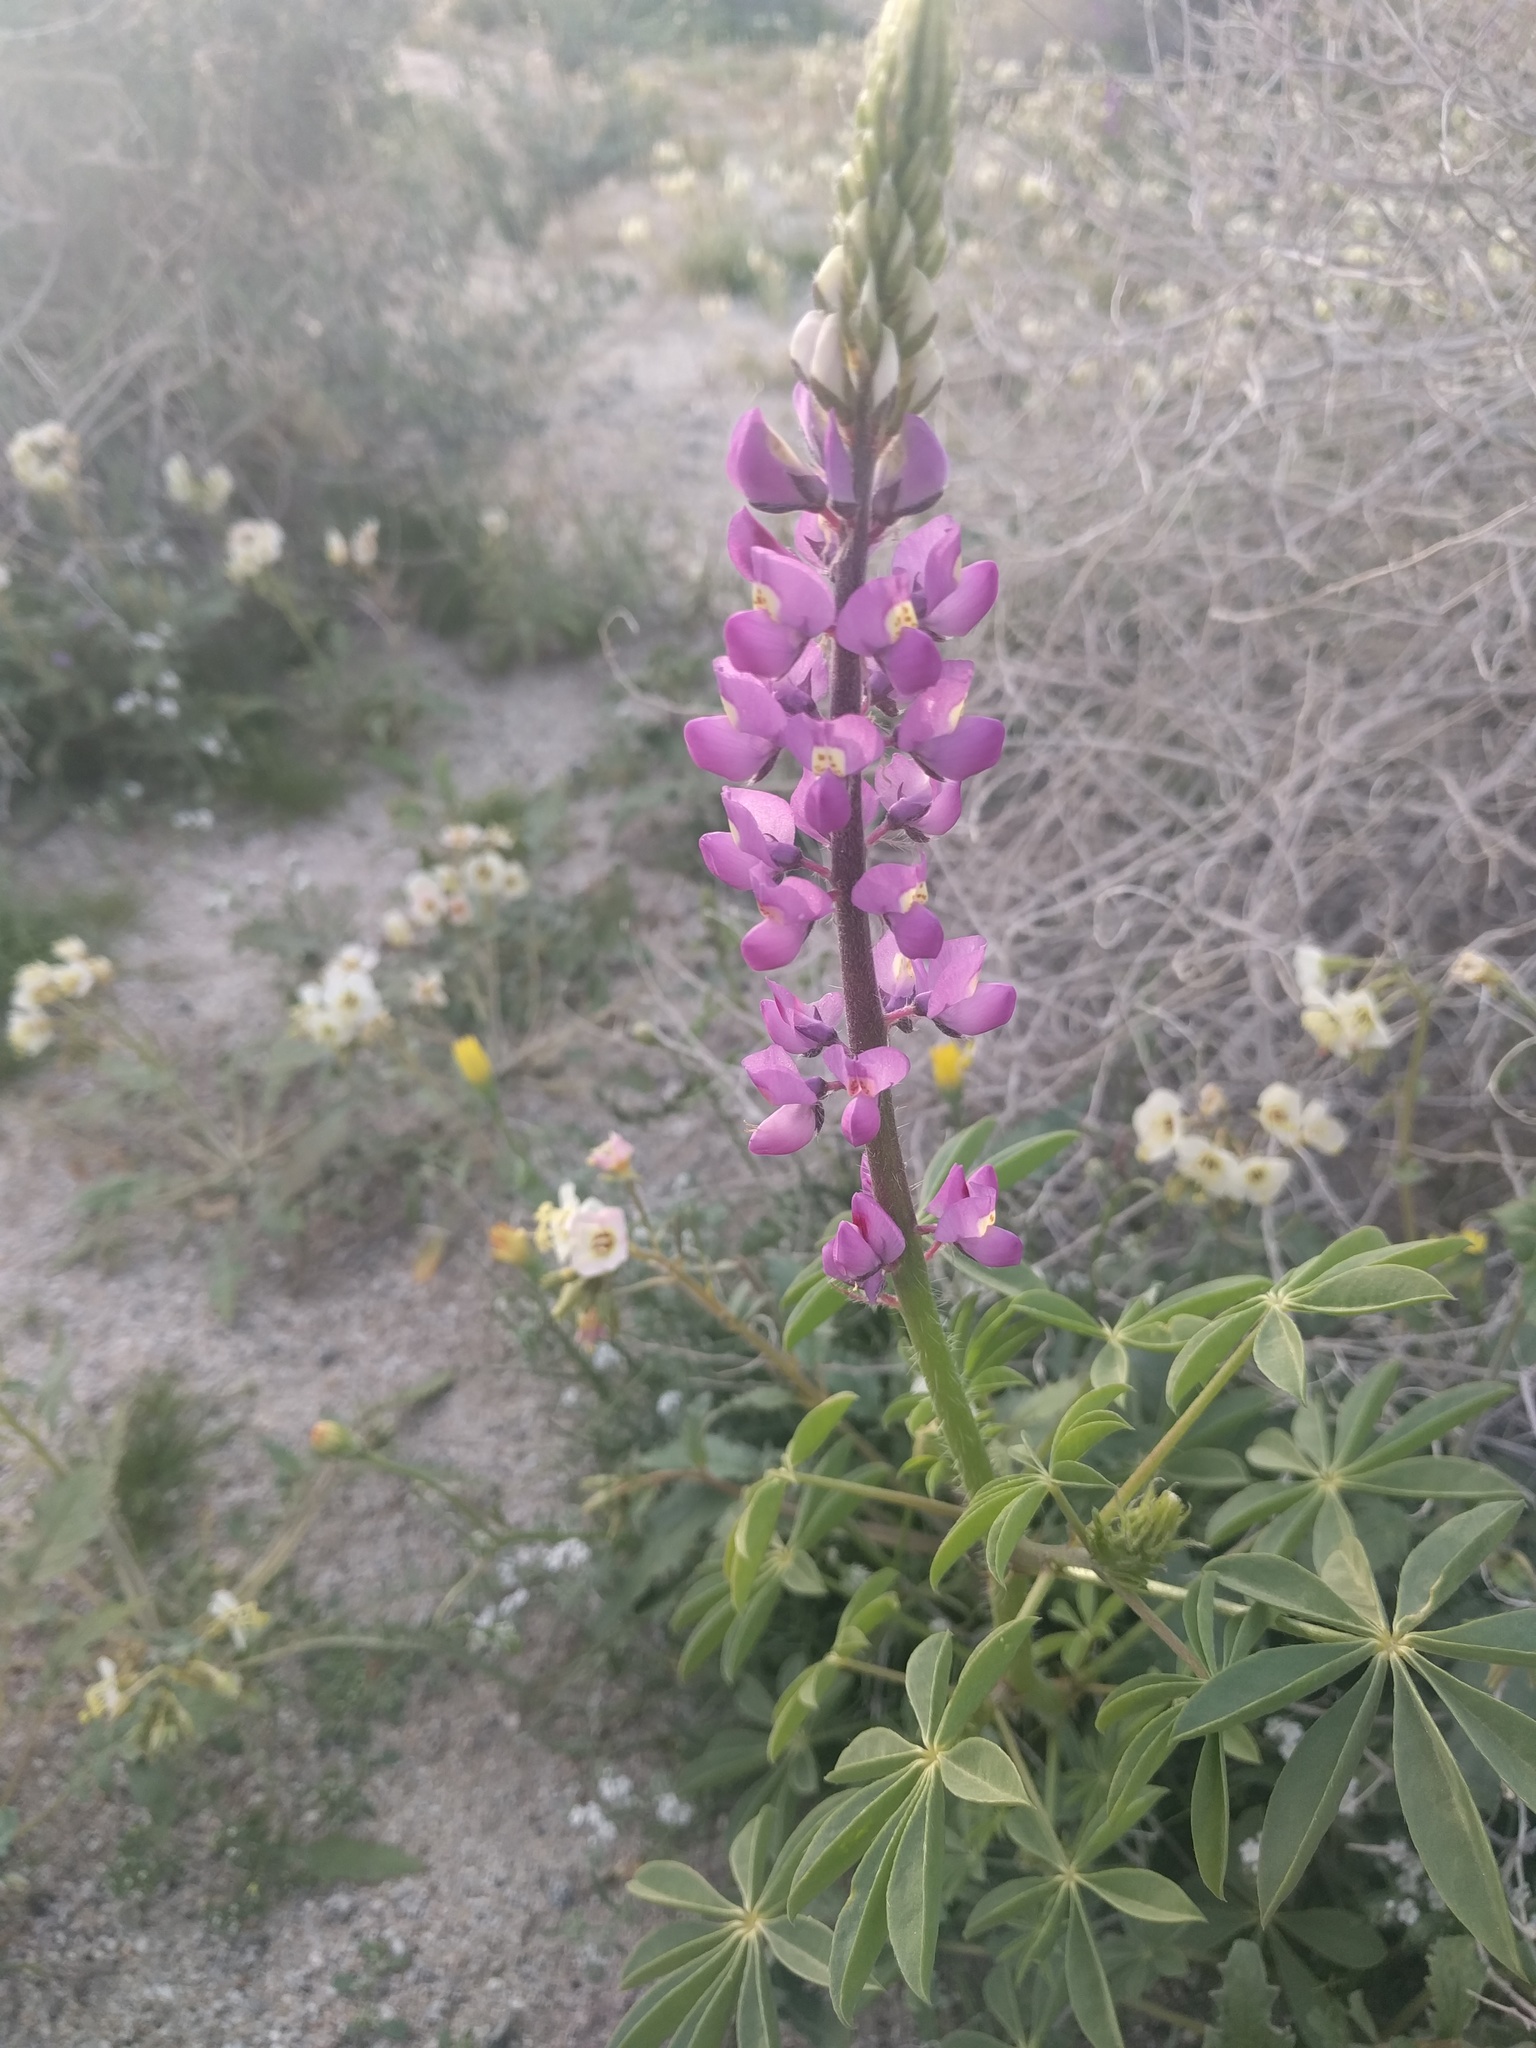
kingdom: Plantae
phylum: Tracheophyta
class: Magnoliopsida
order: Fabales
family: Fabaceae
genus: Lupinus
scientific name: Lupinus arizonicus
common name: Arizona lupine
